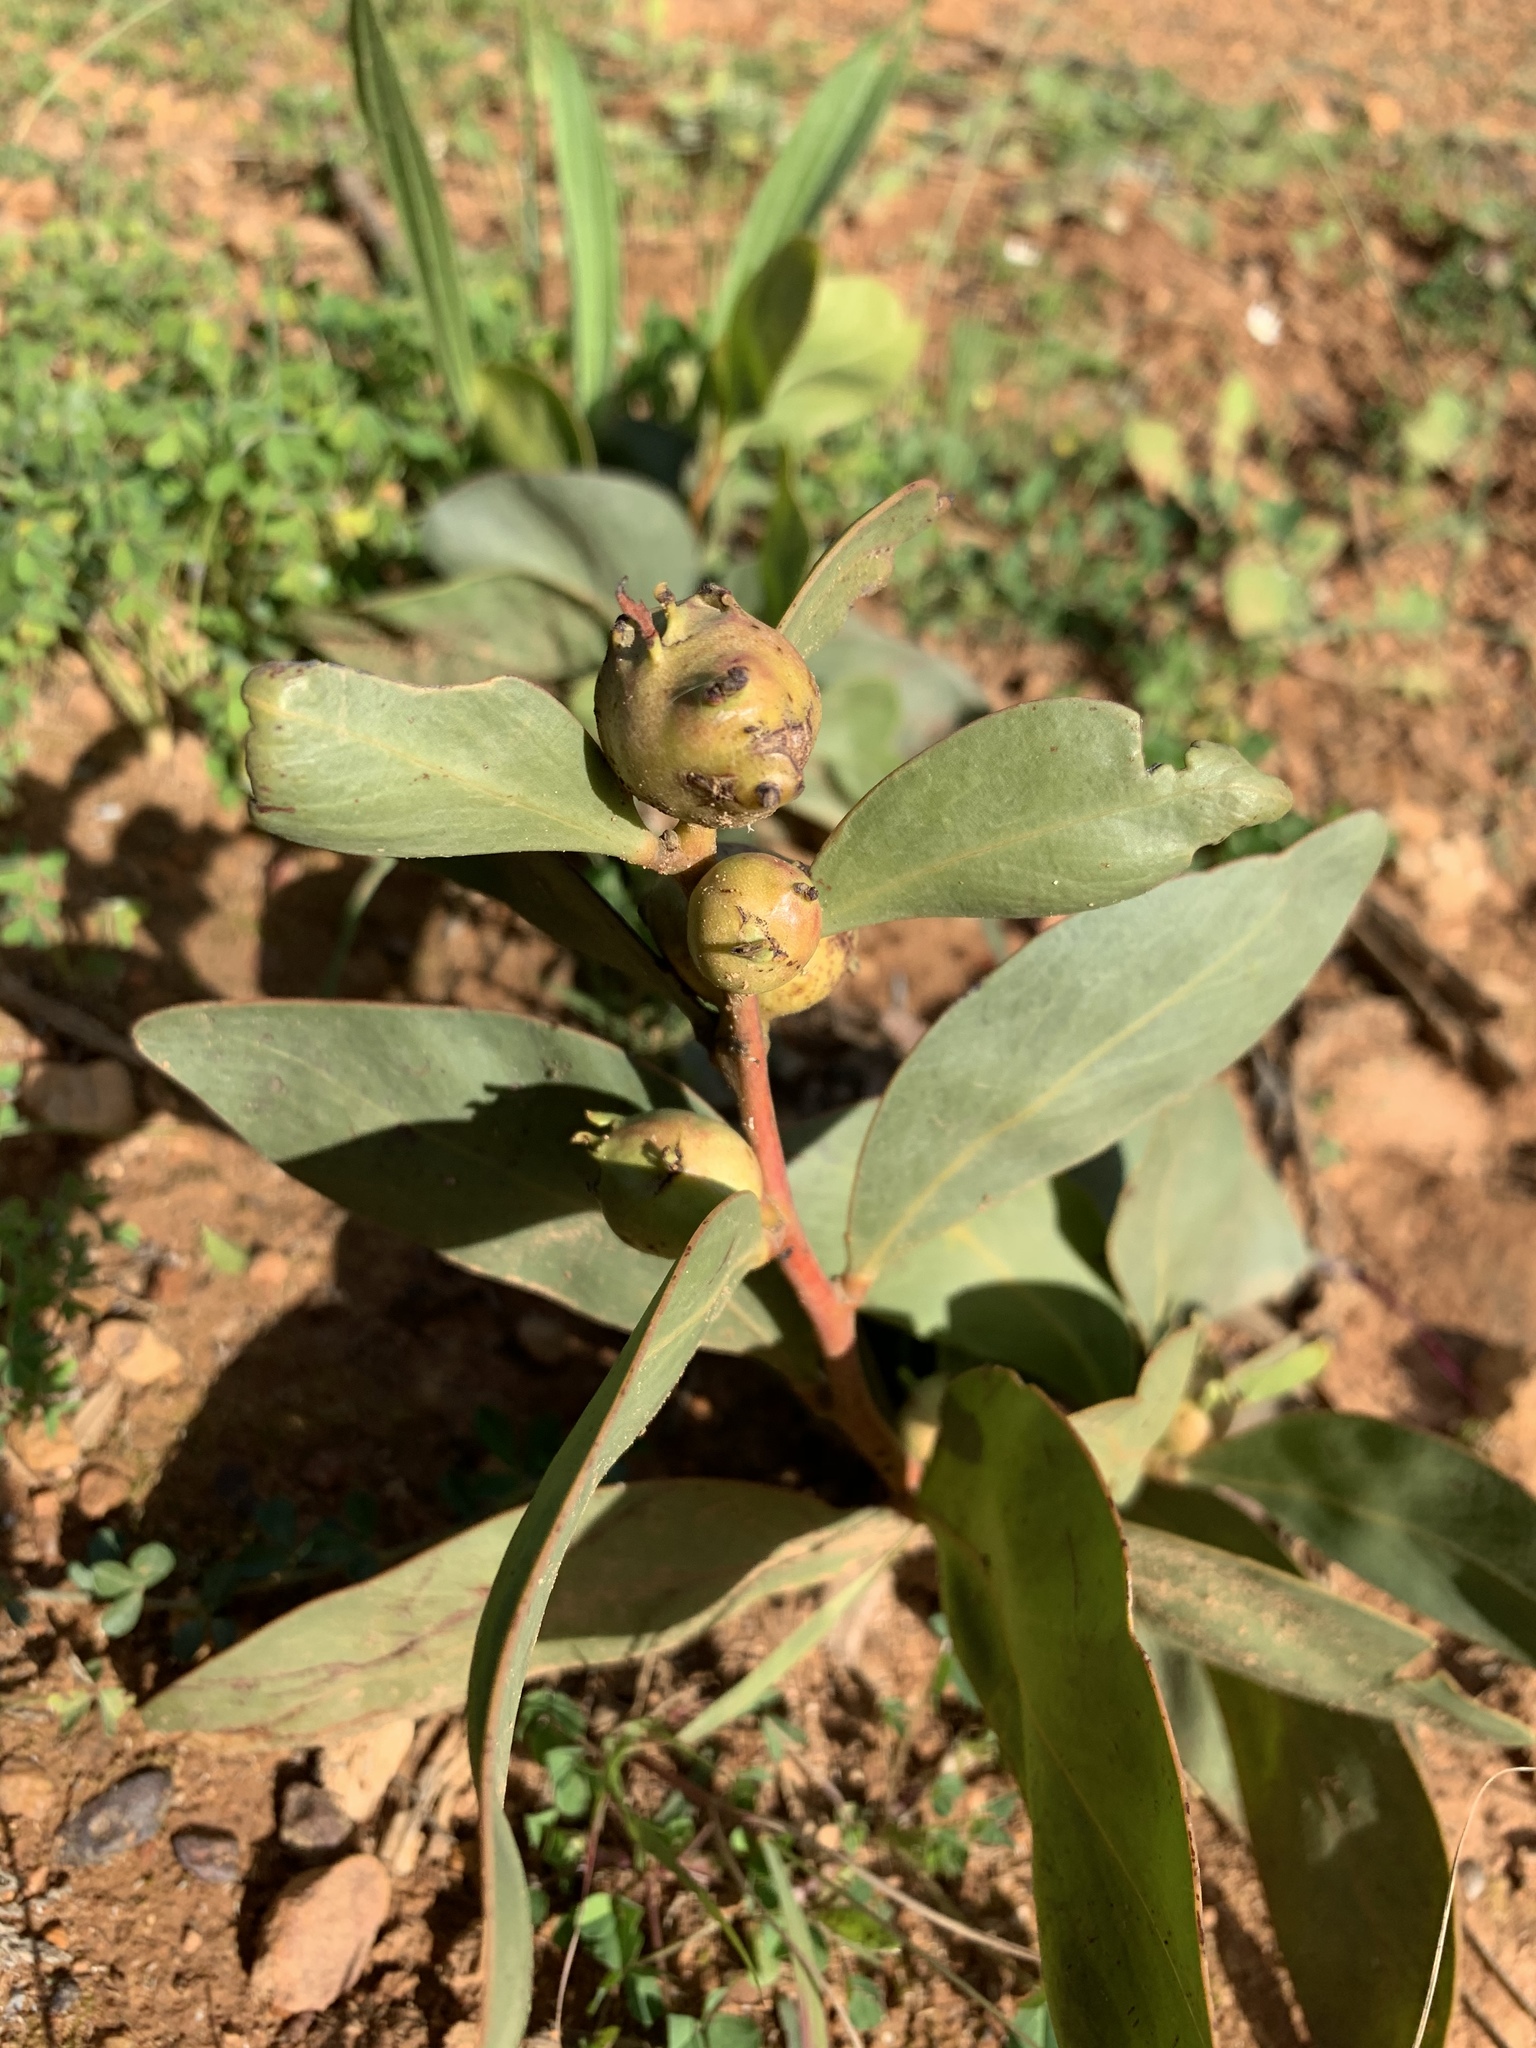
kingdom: Animalia
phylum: Arthropoda
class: Insecta
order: Hymenoptera
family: Pteromalidae
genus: Trichilogaster
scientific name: Trichilogaster signiventris
